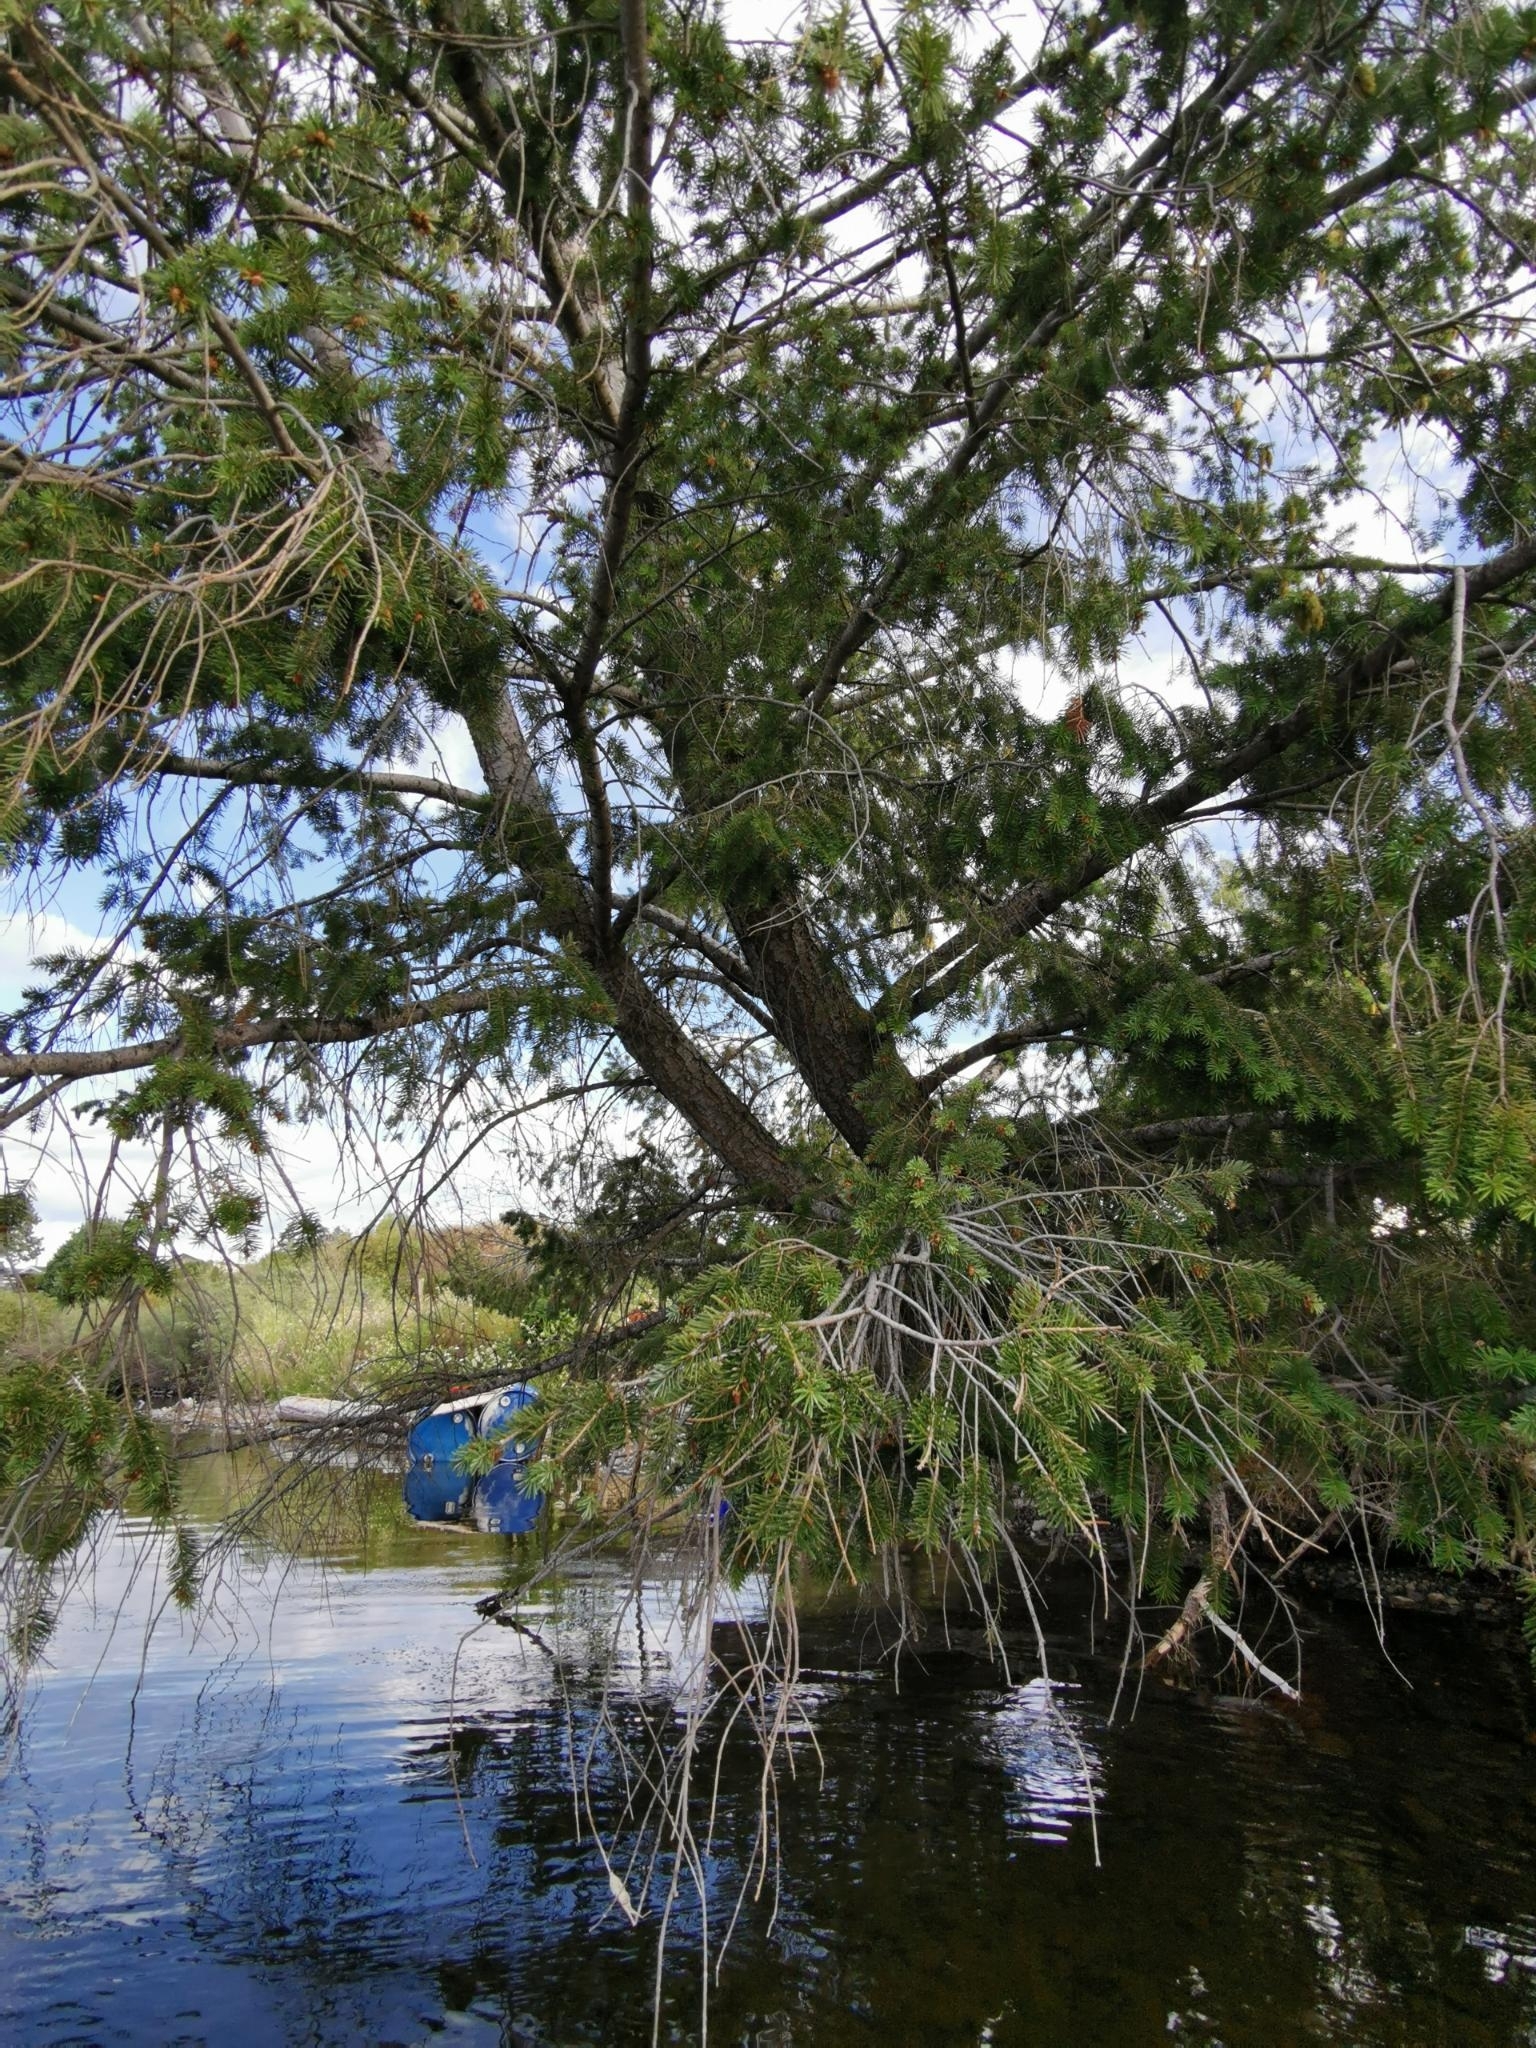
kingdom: Plantae
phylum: Tracheophyta
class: Pinopsida
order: Pinales
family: Pinaceae
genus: Pseudotsuga
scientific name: Pseudotsuga menziesii
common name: Douglas fir
